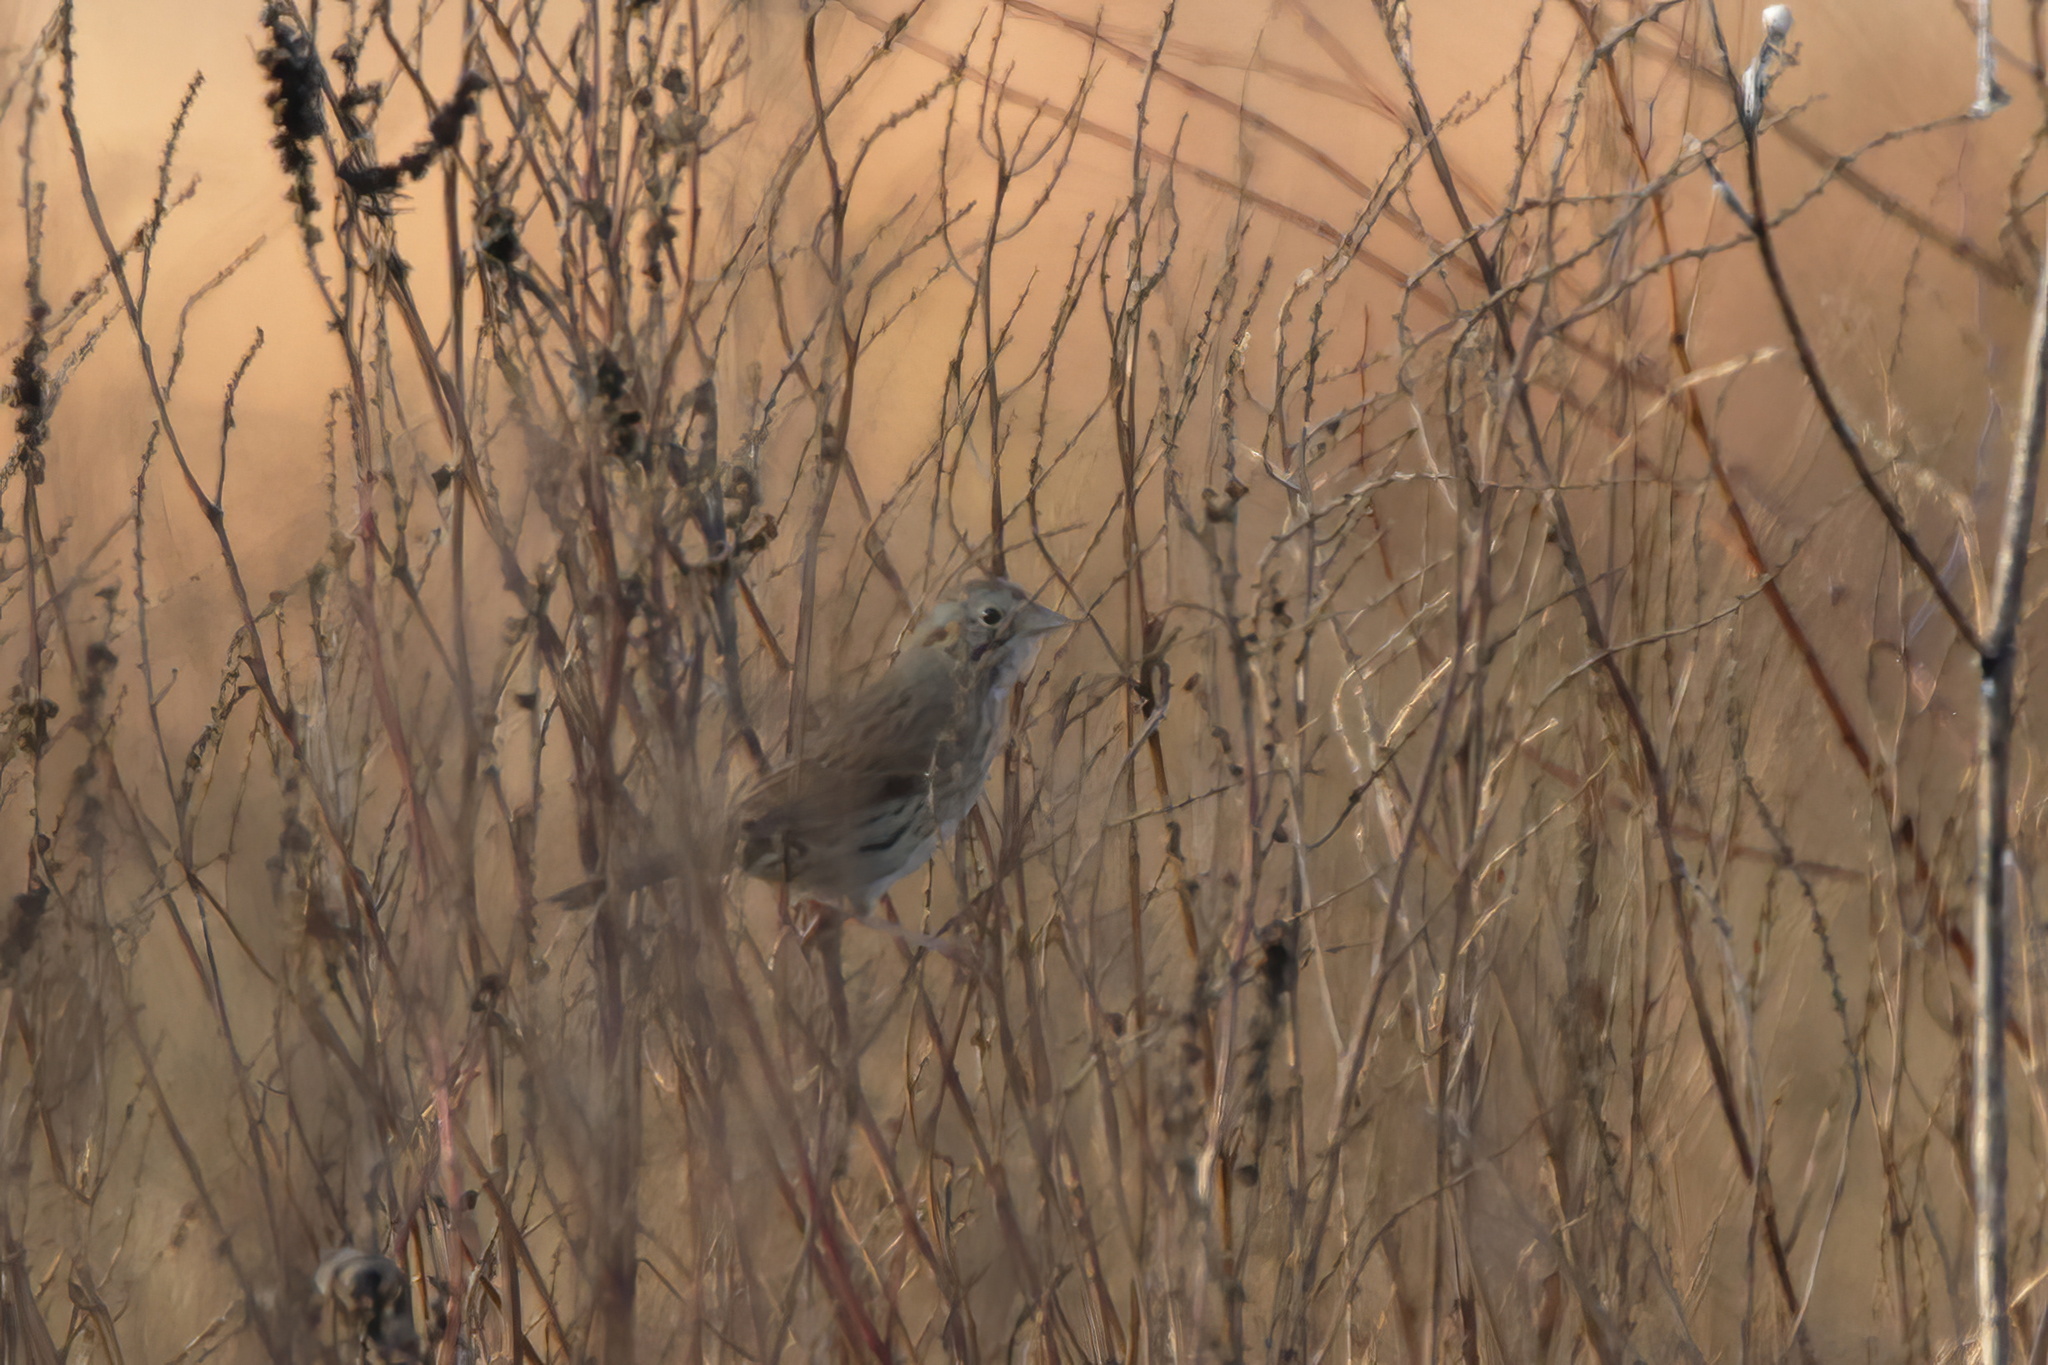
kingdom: Animalia
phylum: Chordata
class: Aves
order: Passeriformes
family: Passerellidae
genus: Melospiza
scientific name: Melospiza lincolnii
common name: Lincoln's sparrow
